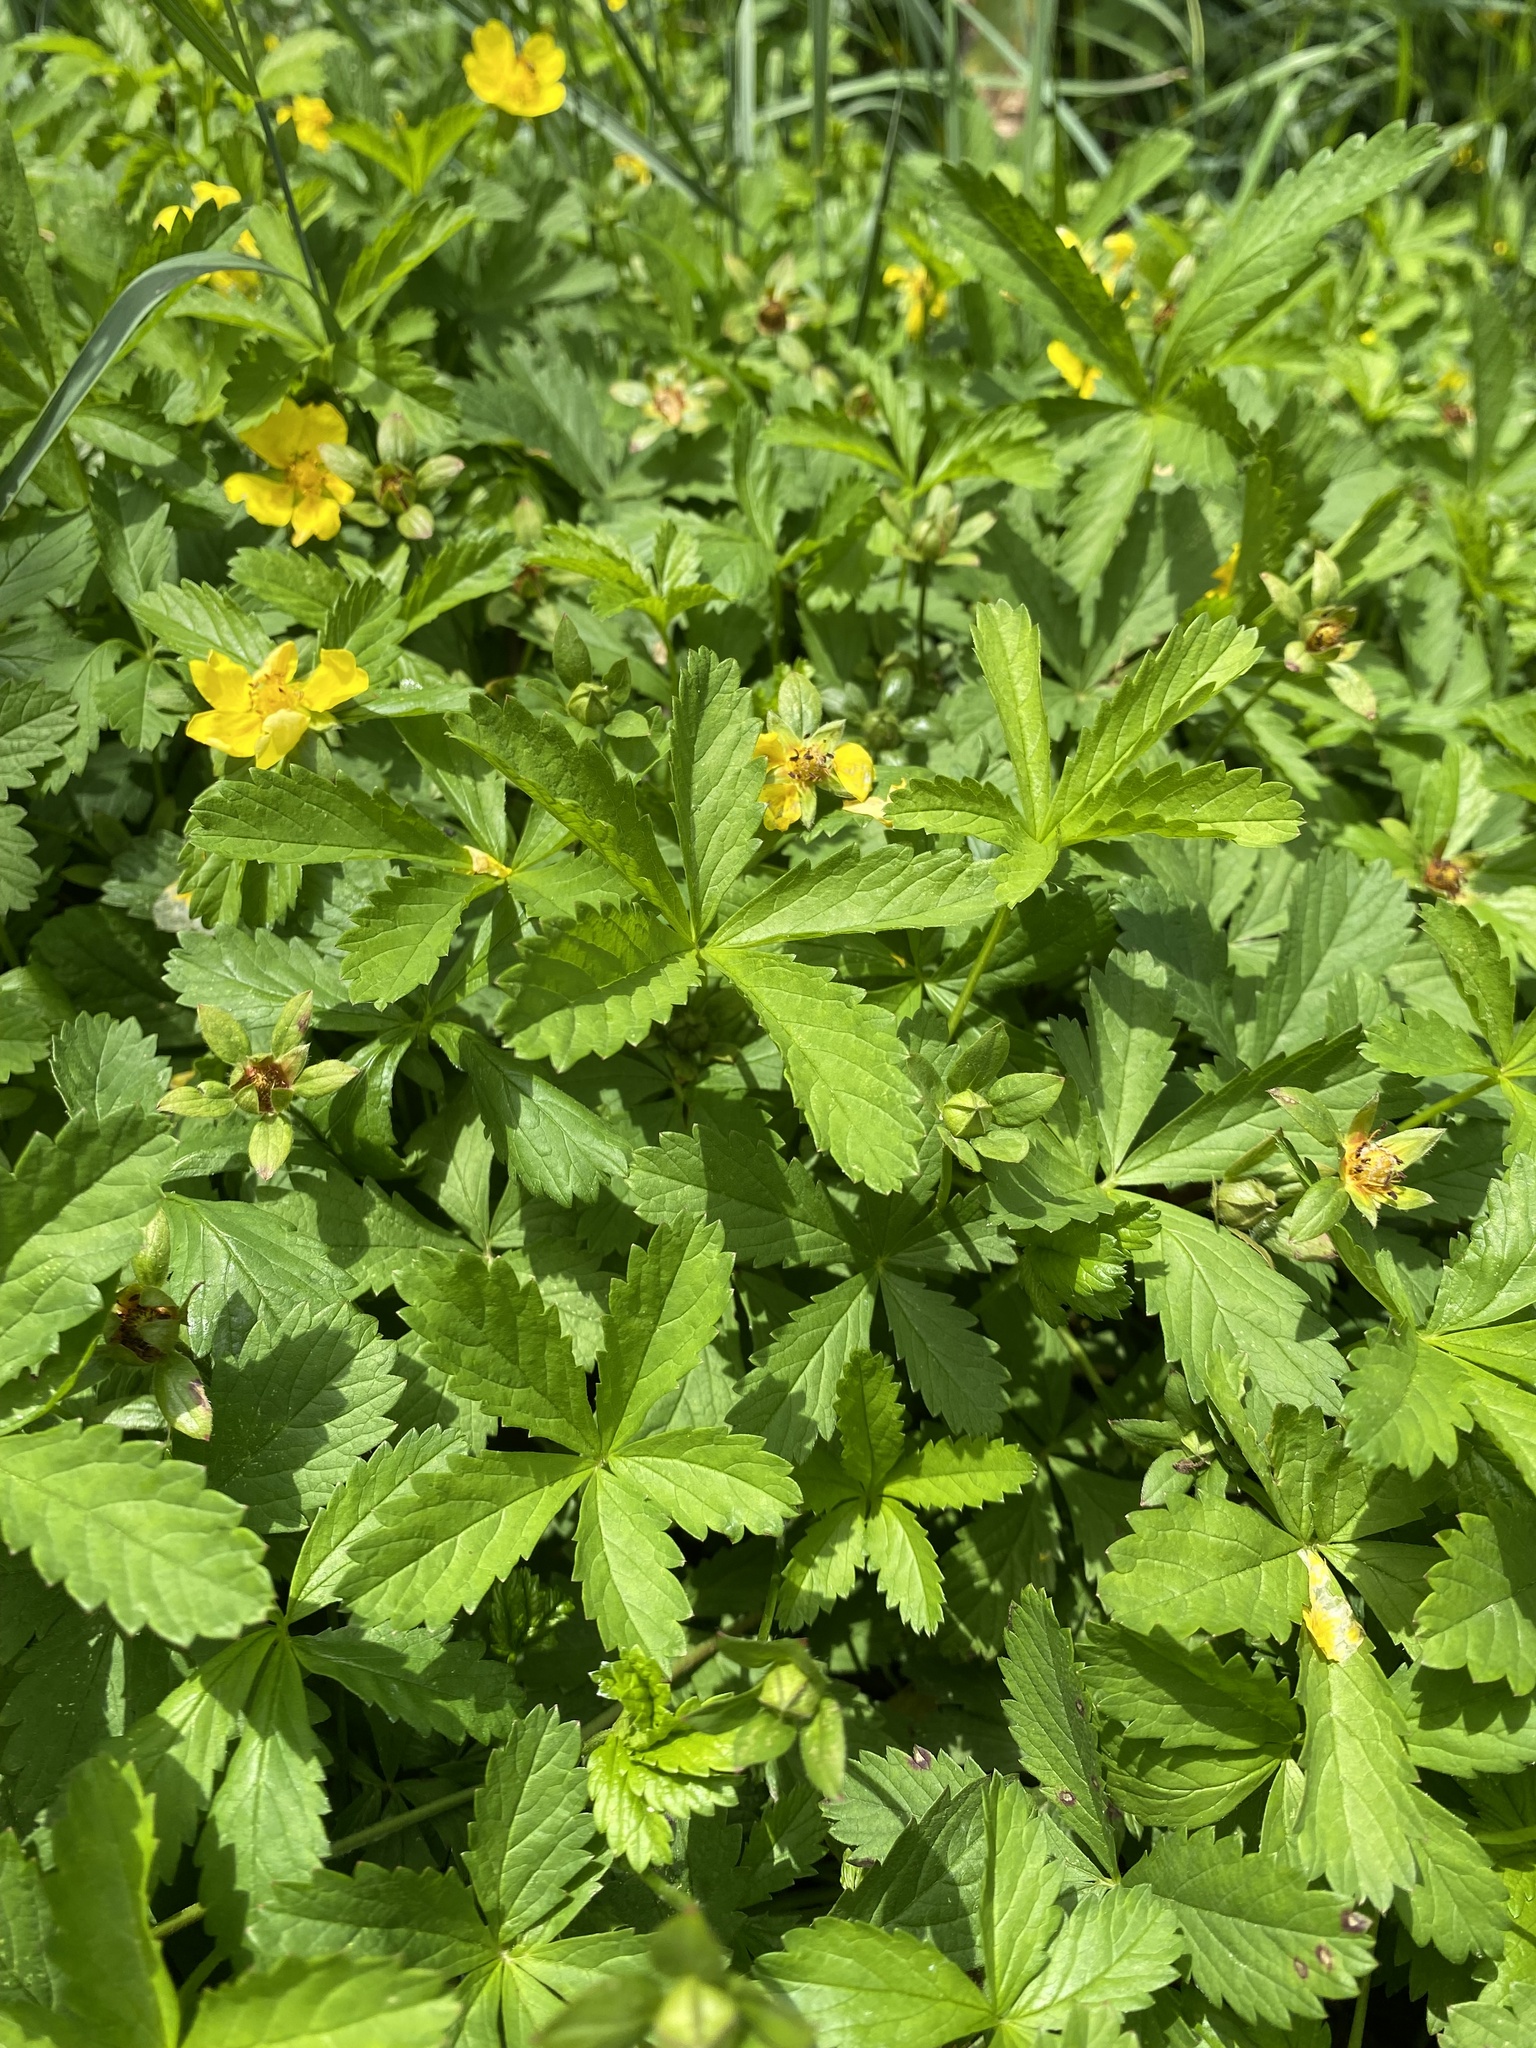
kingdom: Plantae
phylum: Tracheophyta
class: Magnoliopsida
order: Rosales
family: Rosaceae
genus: Potentilla
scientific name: Potentilla reptans
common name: Creeping cinquefoil
